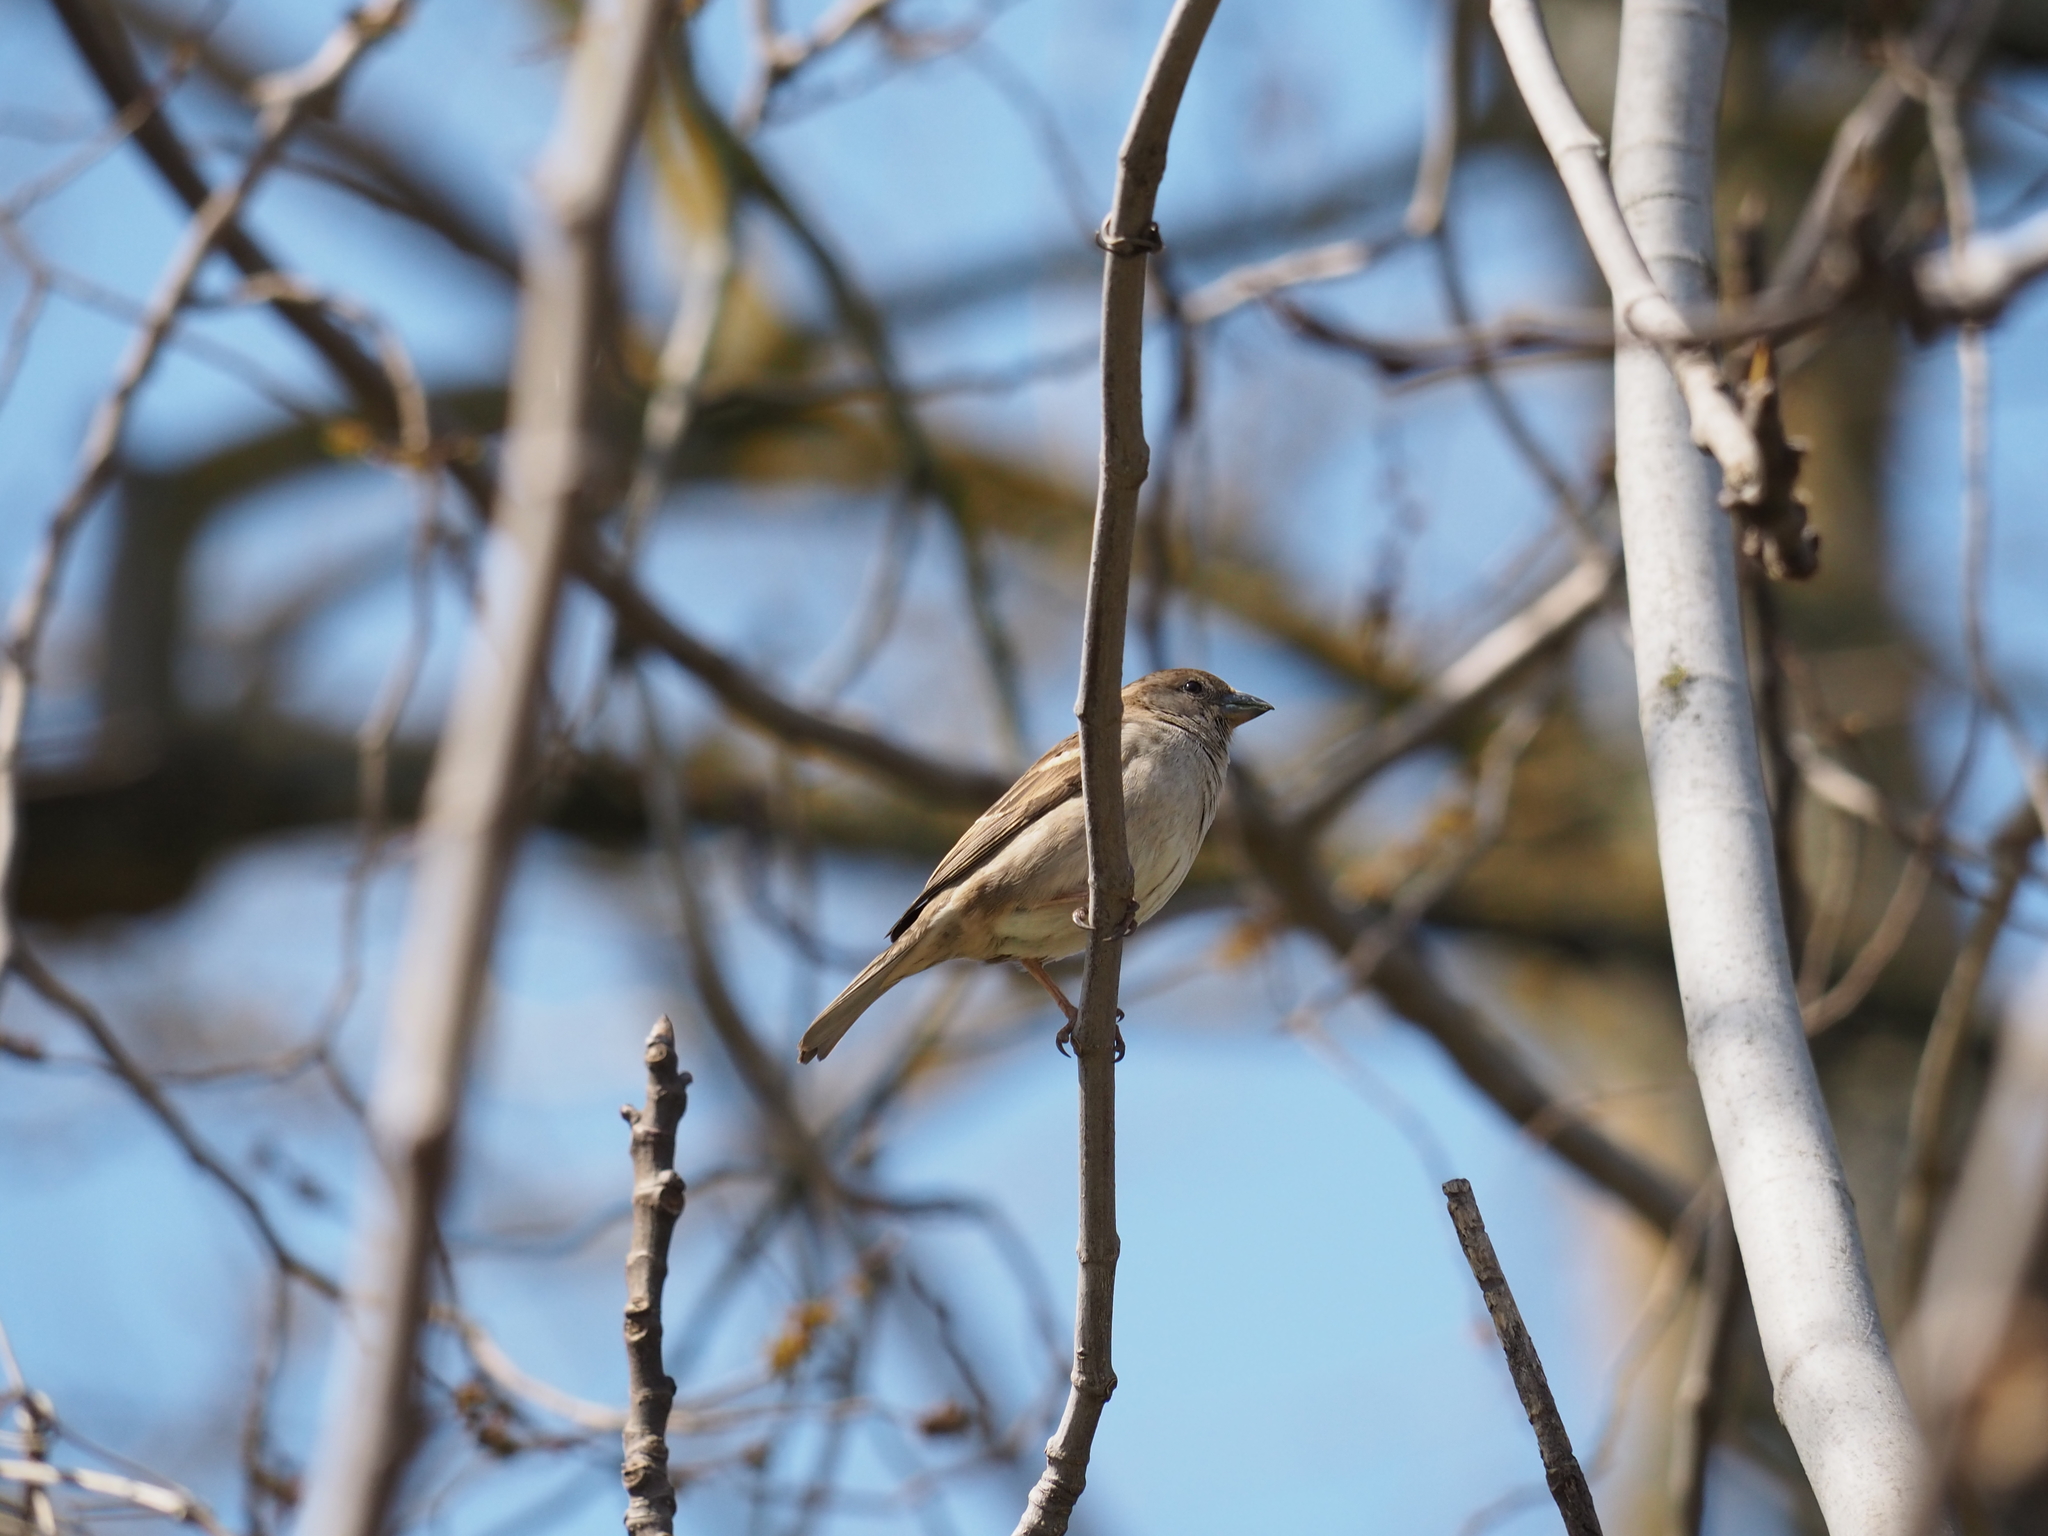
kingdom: Animalia
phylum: Chordata
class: Aves
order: Passeriformes
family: Passeridae
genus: Passer
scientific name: Passer italiae
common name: Italian sparrow
